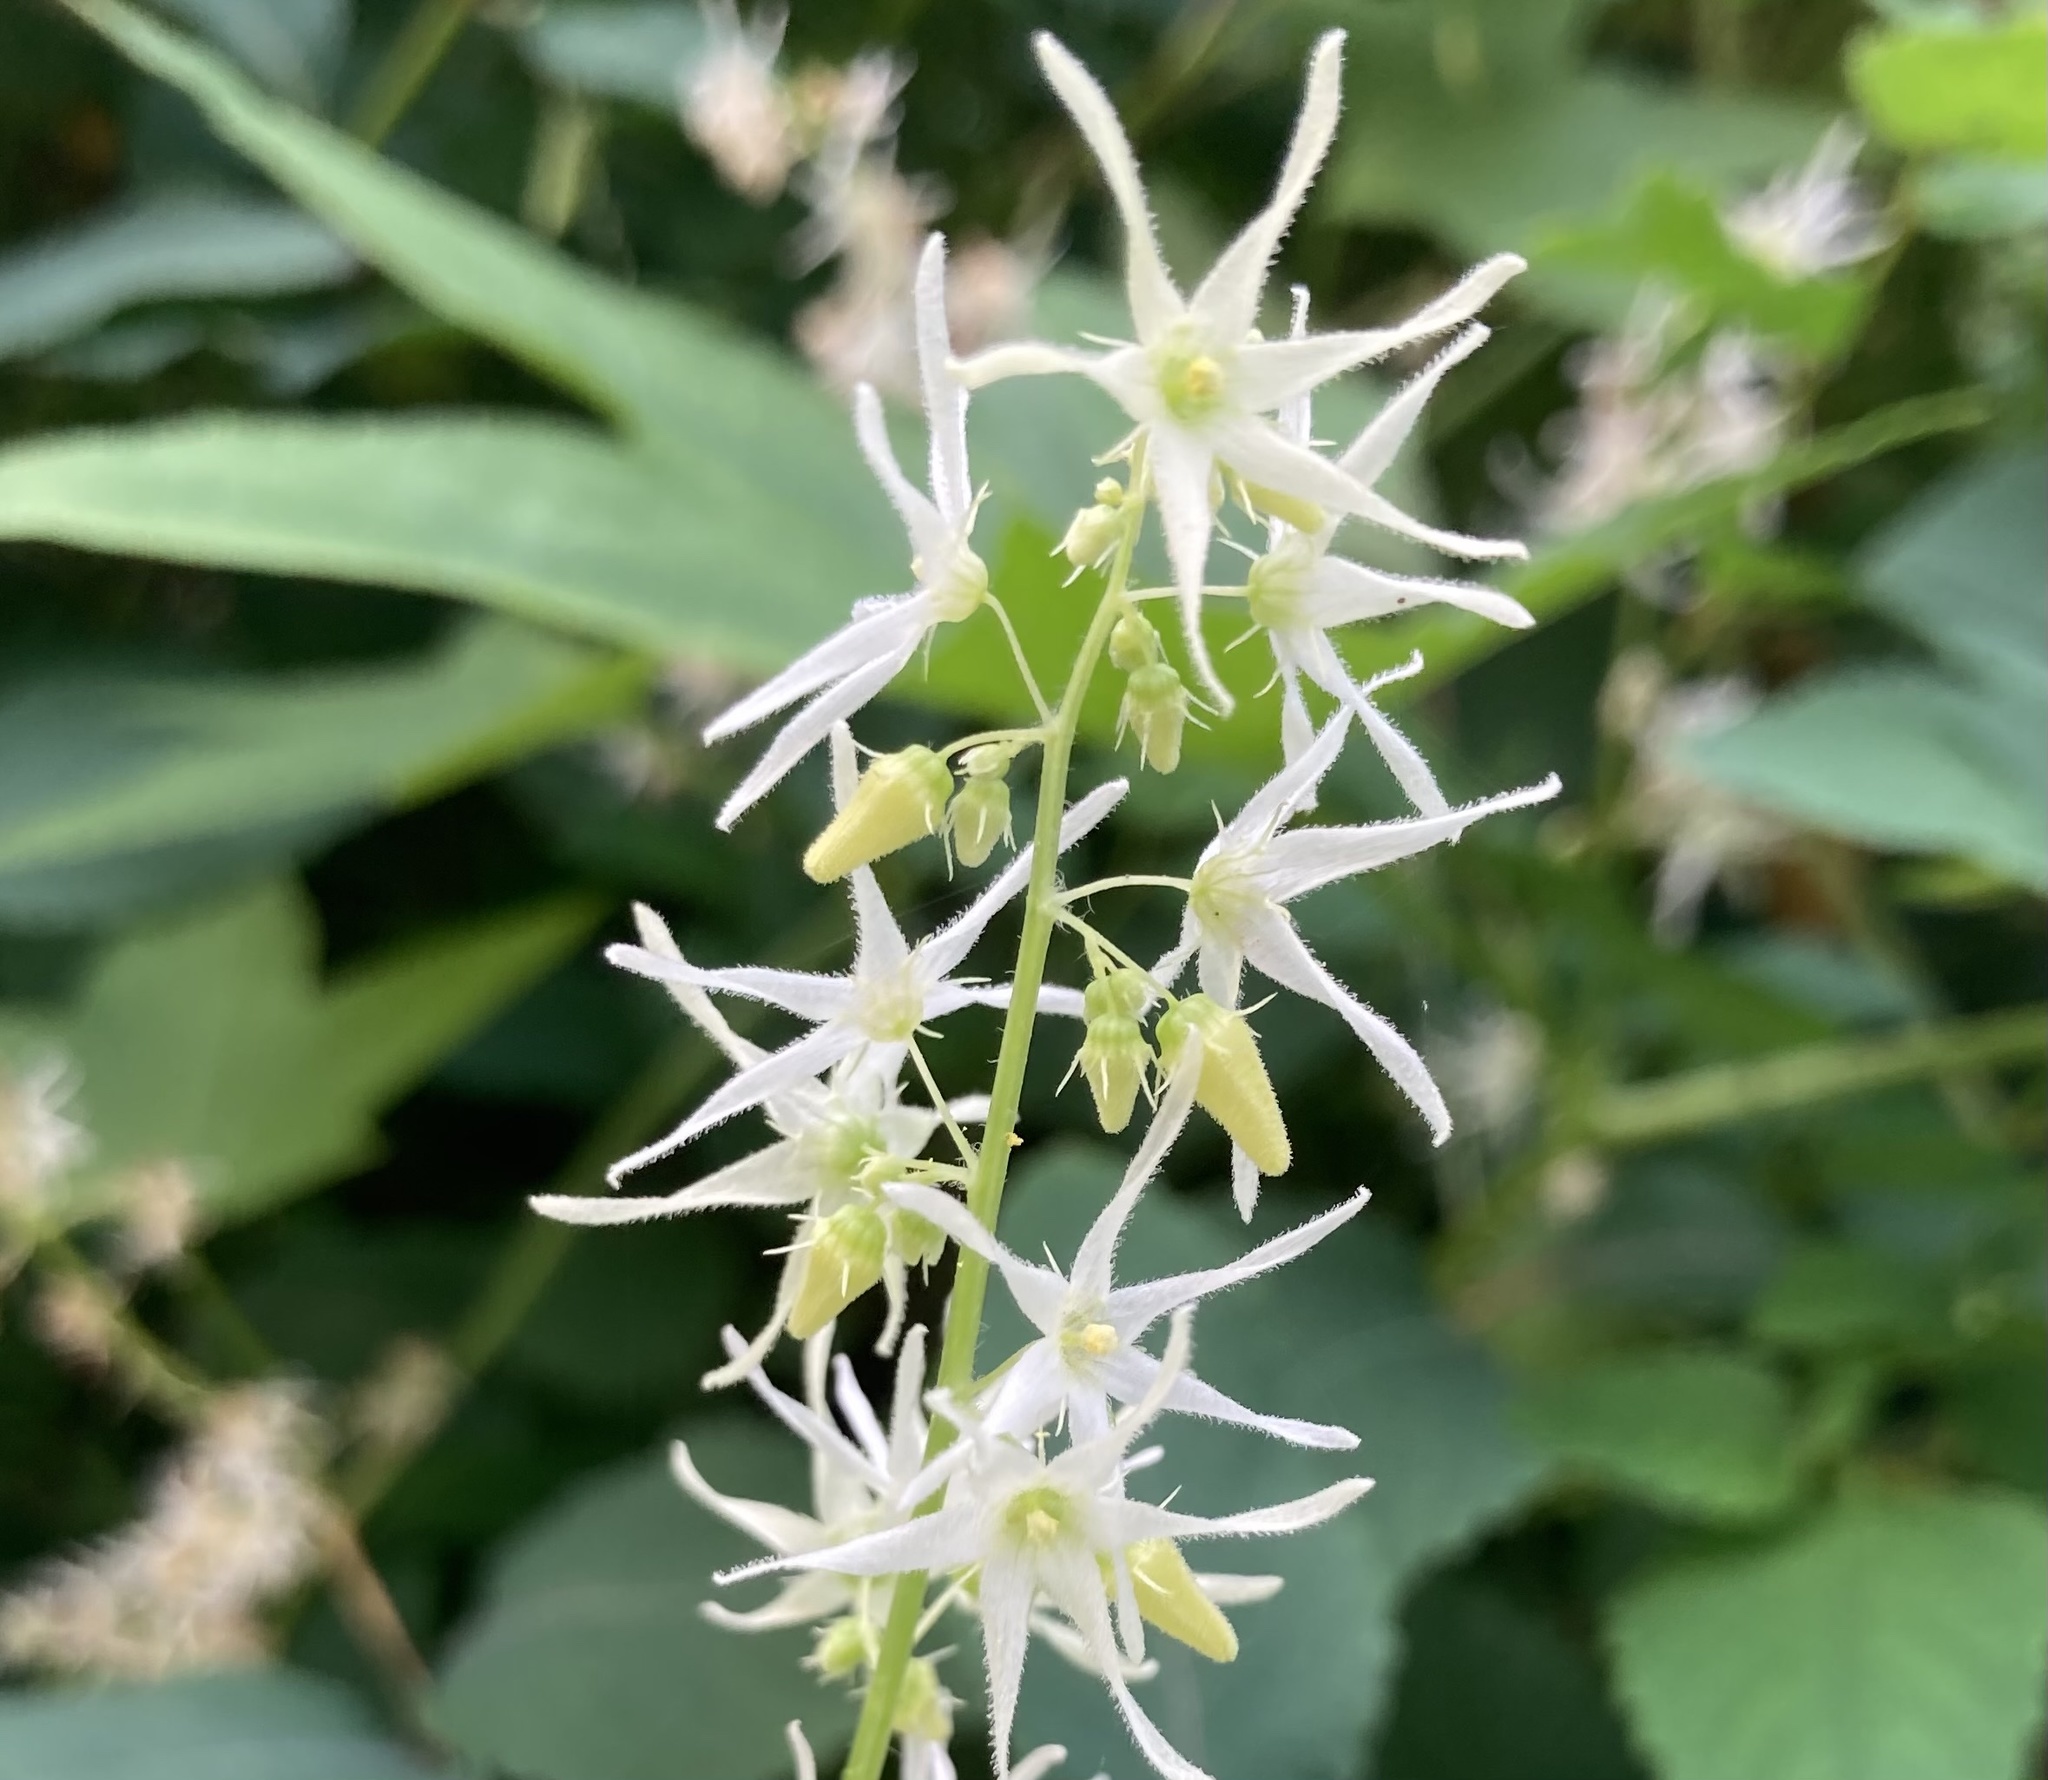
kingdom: Plantae
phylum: Tracheophyta
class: Magnoliopsida
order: Cucurbitales
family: Cucurbitaceae
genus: Echinocystis
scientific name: Echinocystis lobata
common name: Wild cucumber
